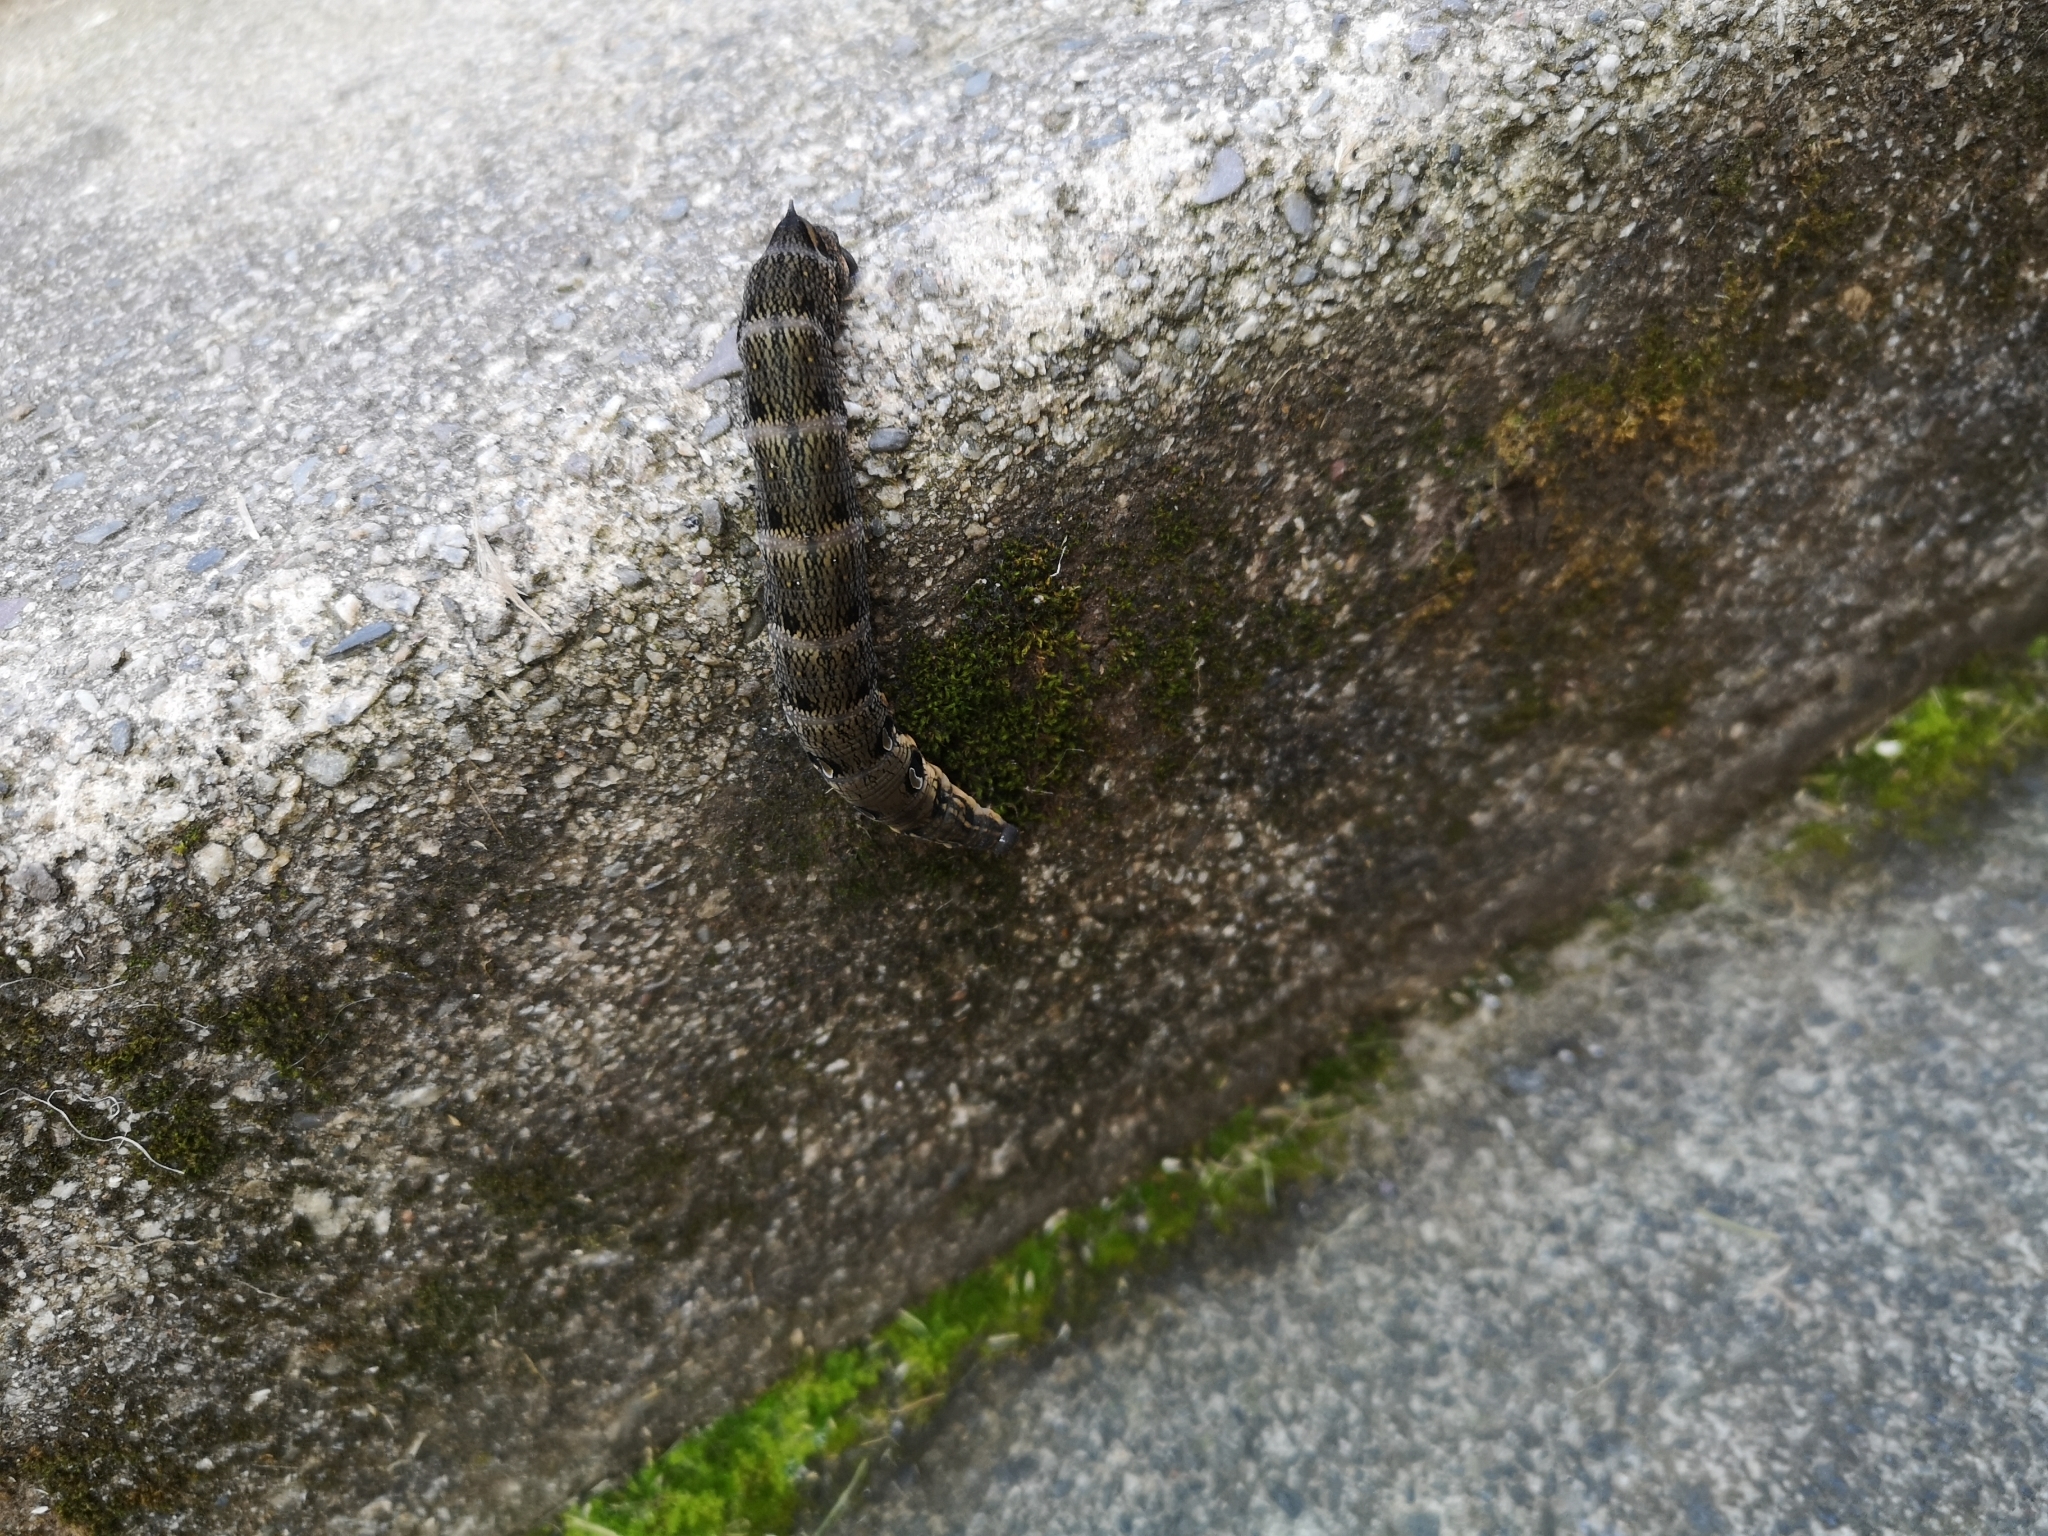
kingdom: Animalia
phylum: Arthropoda
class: Insecta
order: Lepidoptera
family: Sphingidae
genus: Deilephila
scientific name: Deilephila elpenor
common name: Elephant hawk-moth
